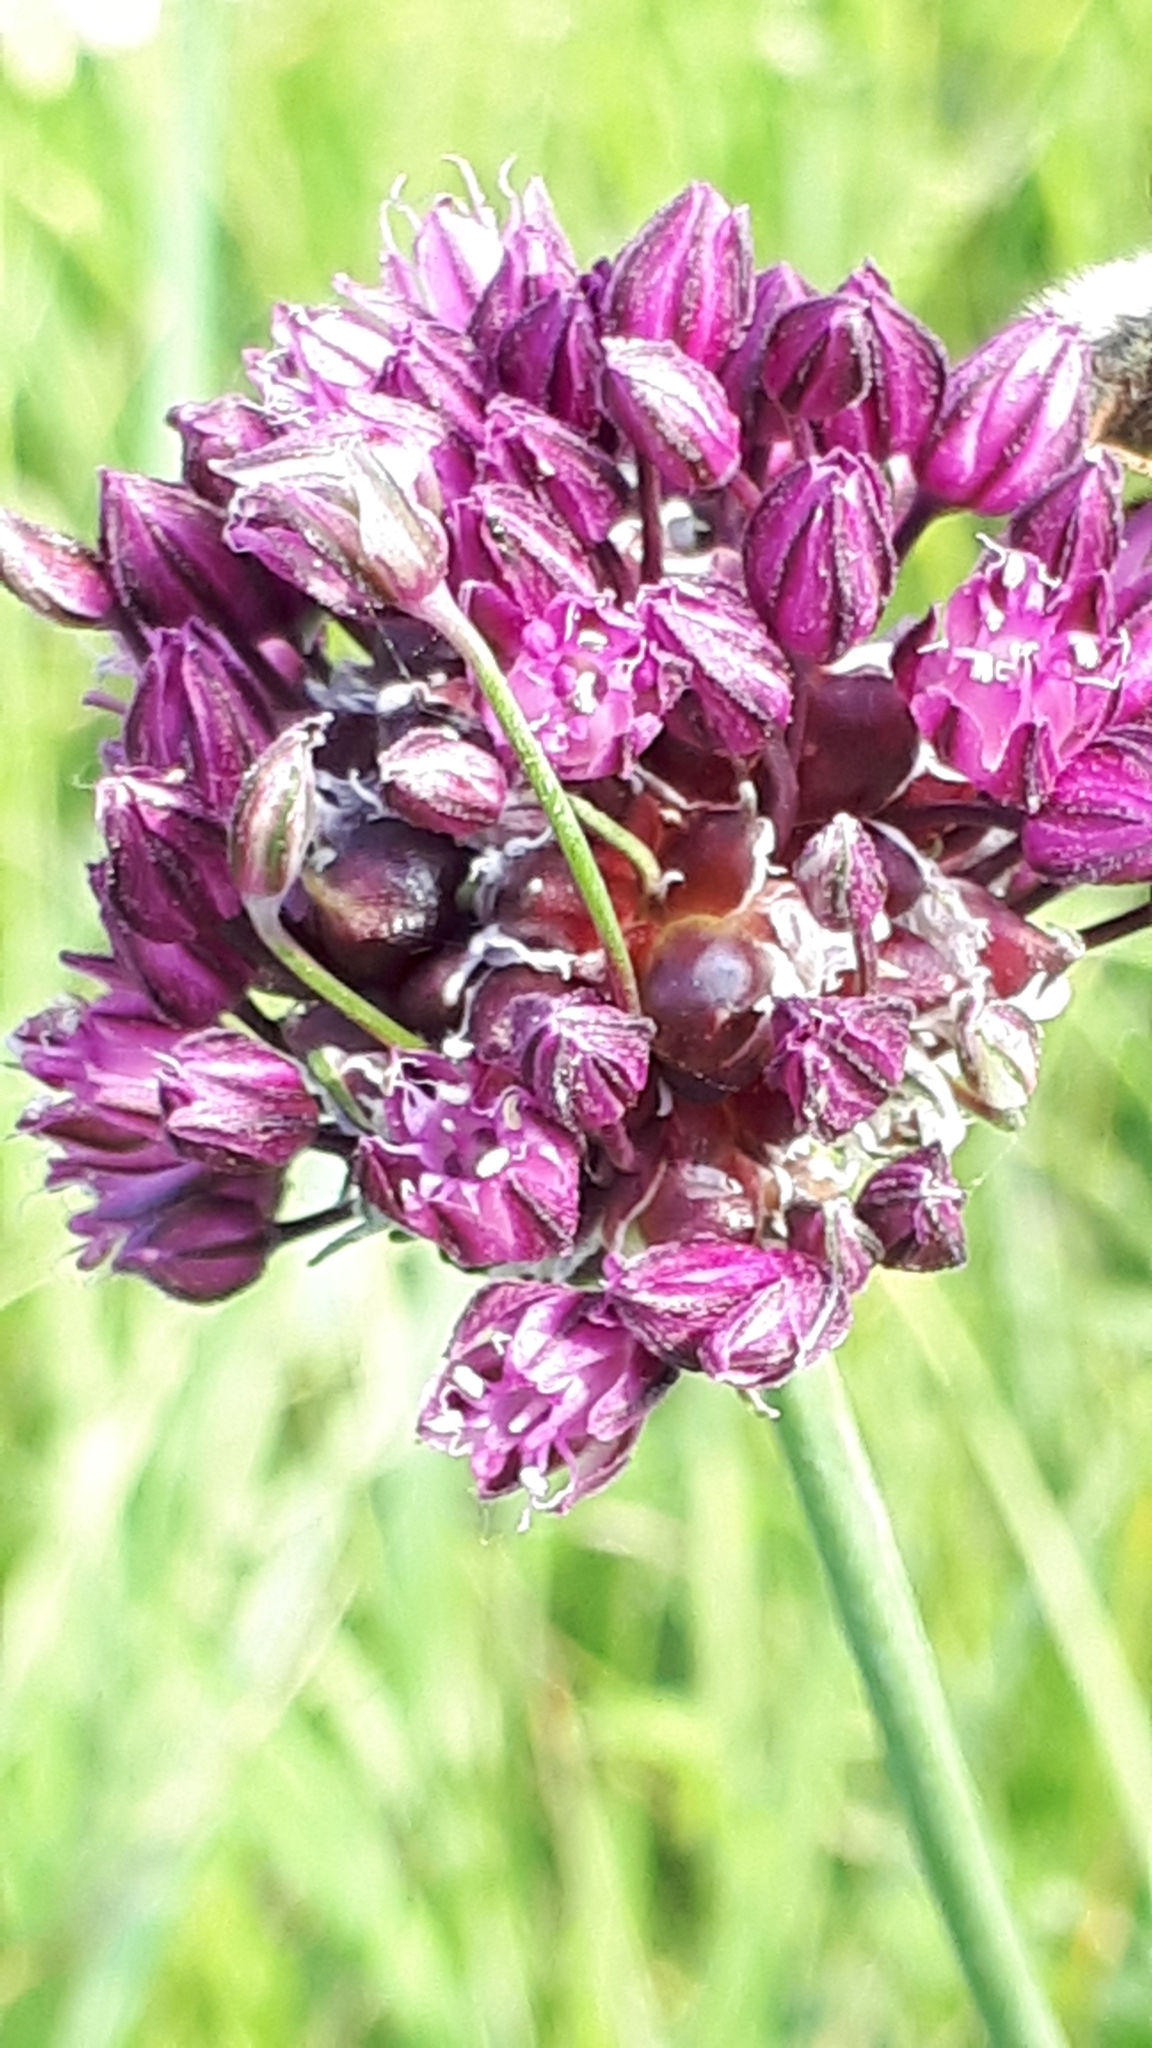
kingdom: Plantae
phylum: Tracheophyta
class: Liliopsida
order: Asparagales
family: Amaryllidaceae
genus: Allium
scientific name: Allium scorodoprasum
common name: Sand leek
